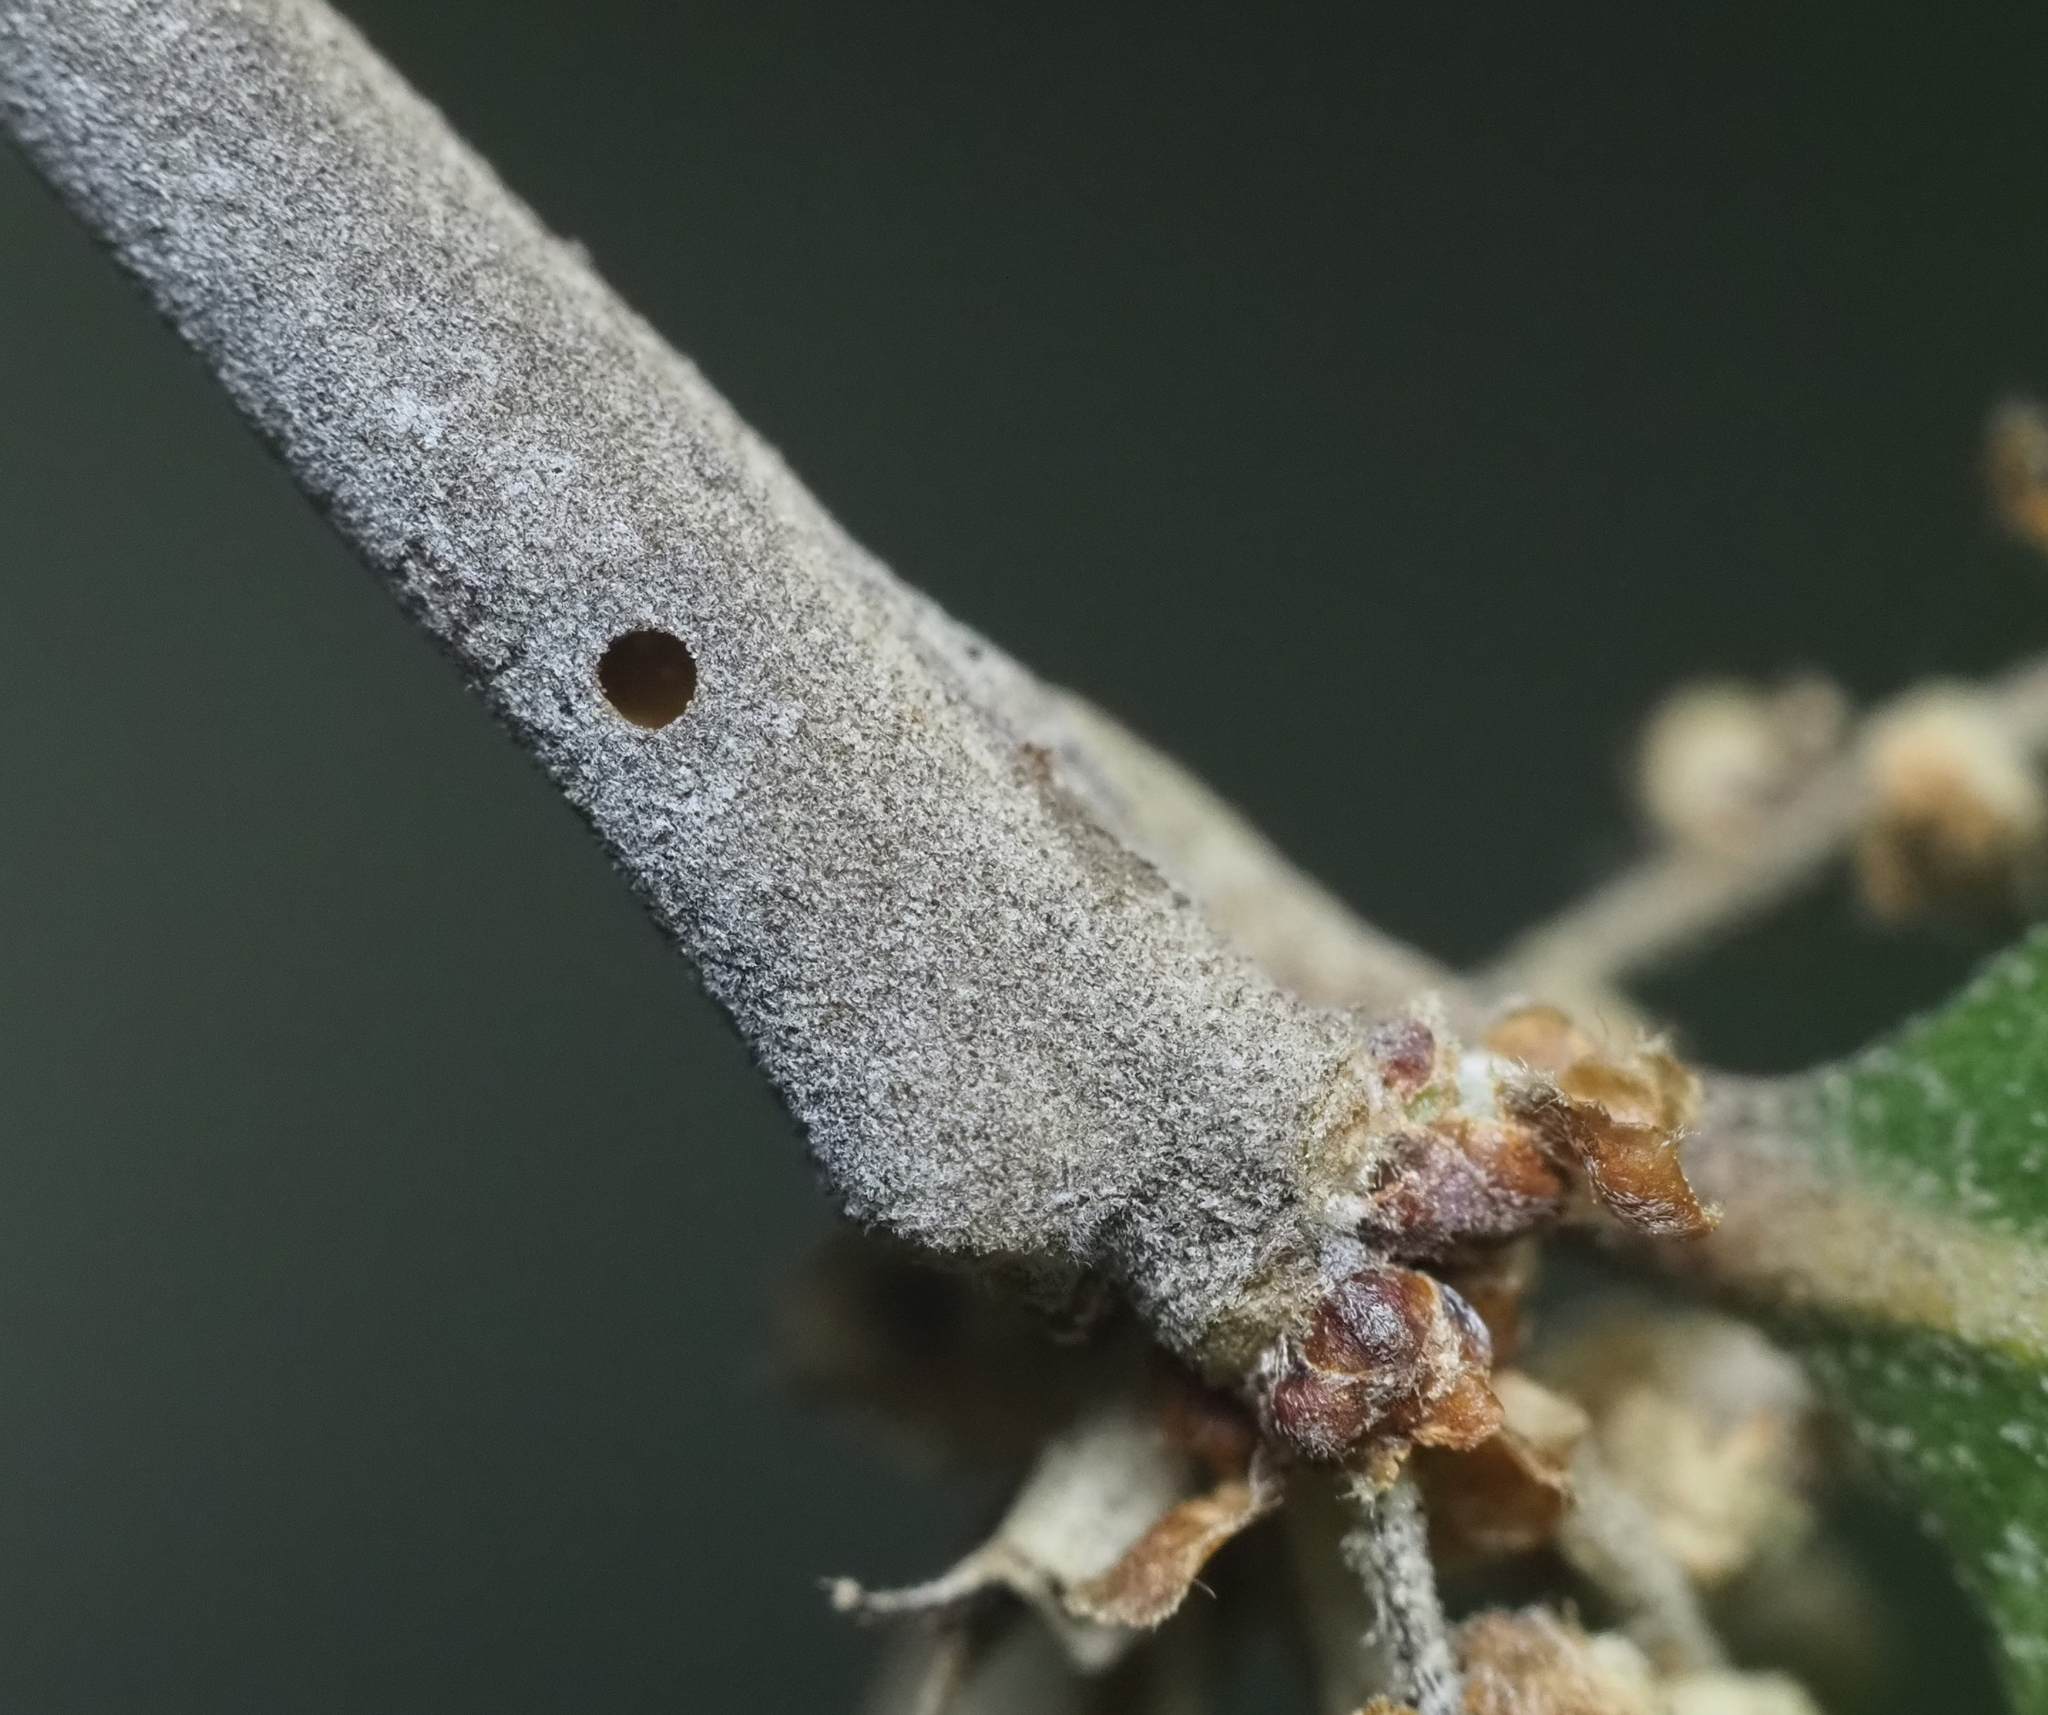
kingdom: Animalia
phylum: Arthropoda
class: Insecta
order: Hymenoptera
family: Cynipidae
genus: Neuroterus
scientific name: Neuroterus valhalla
